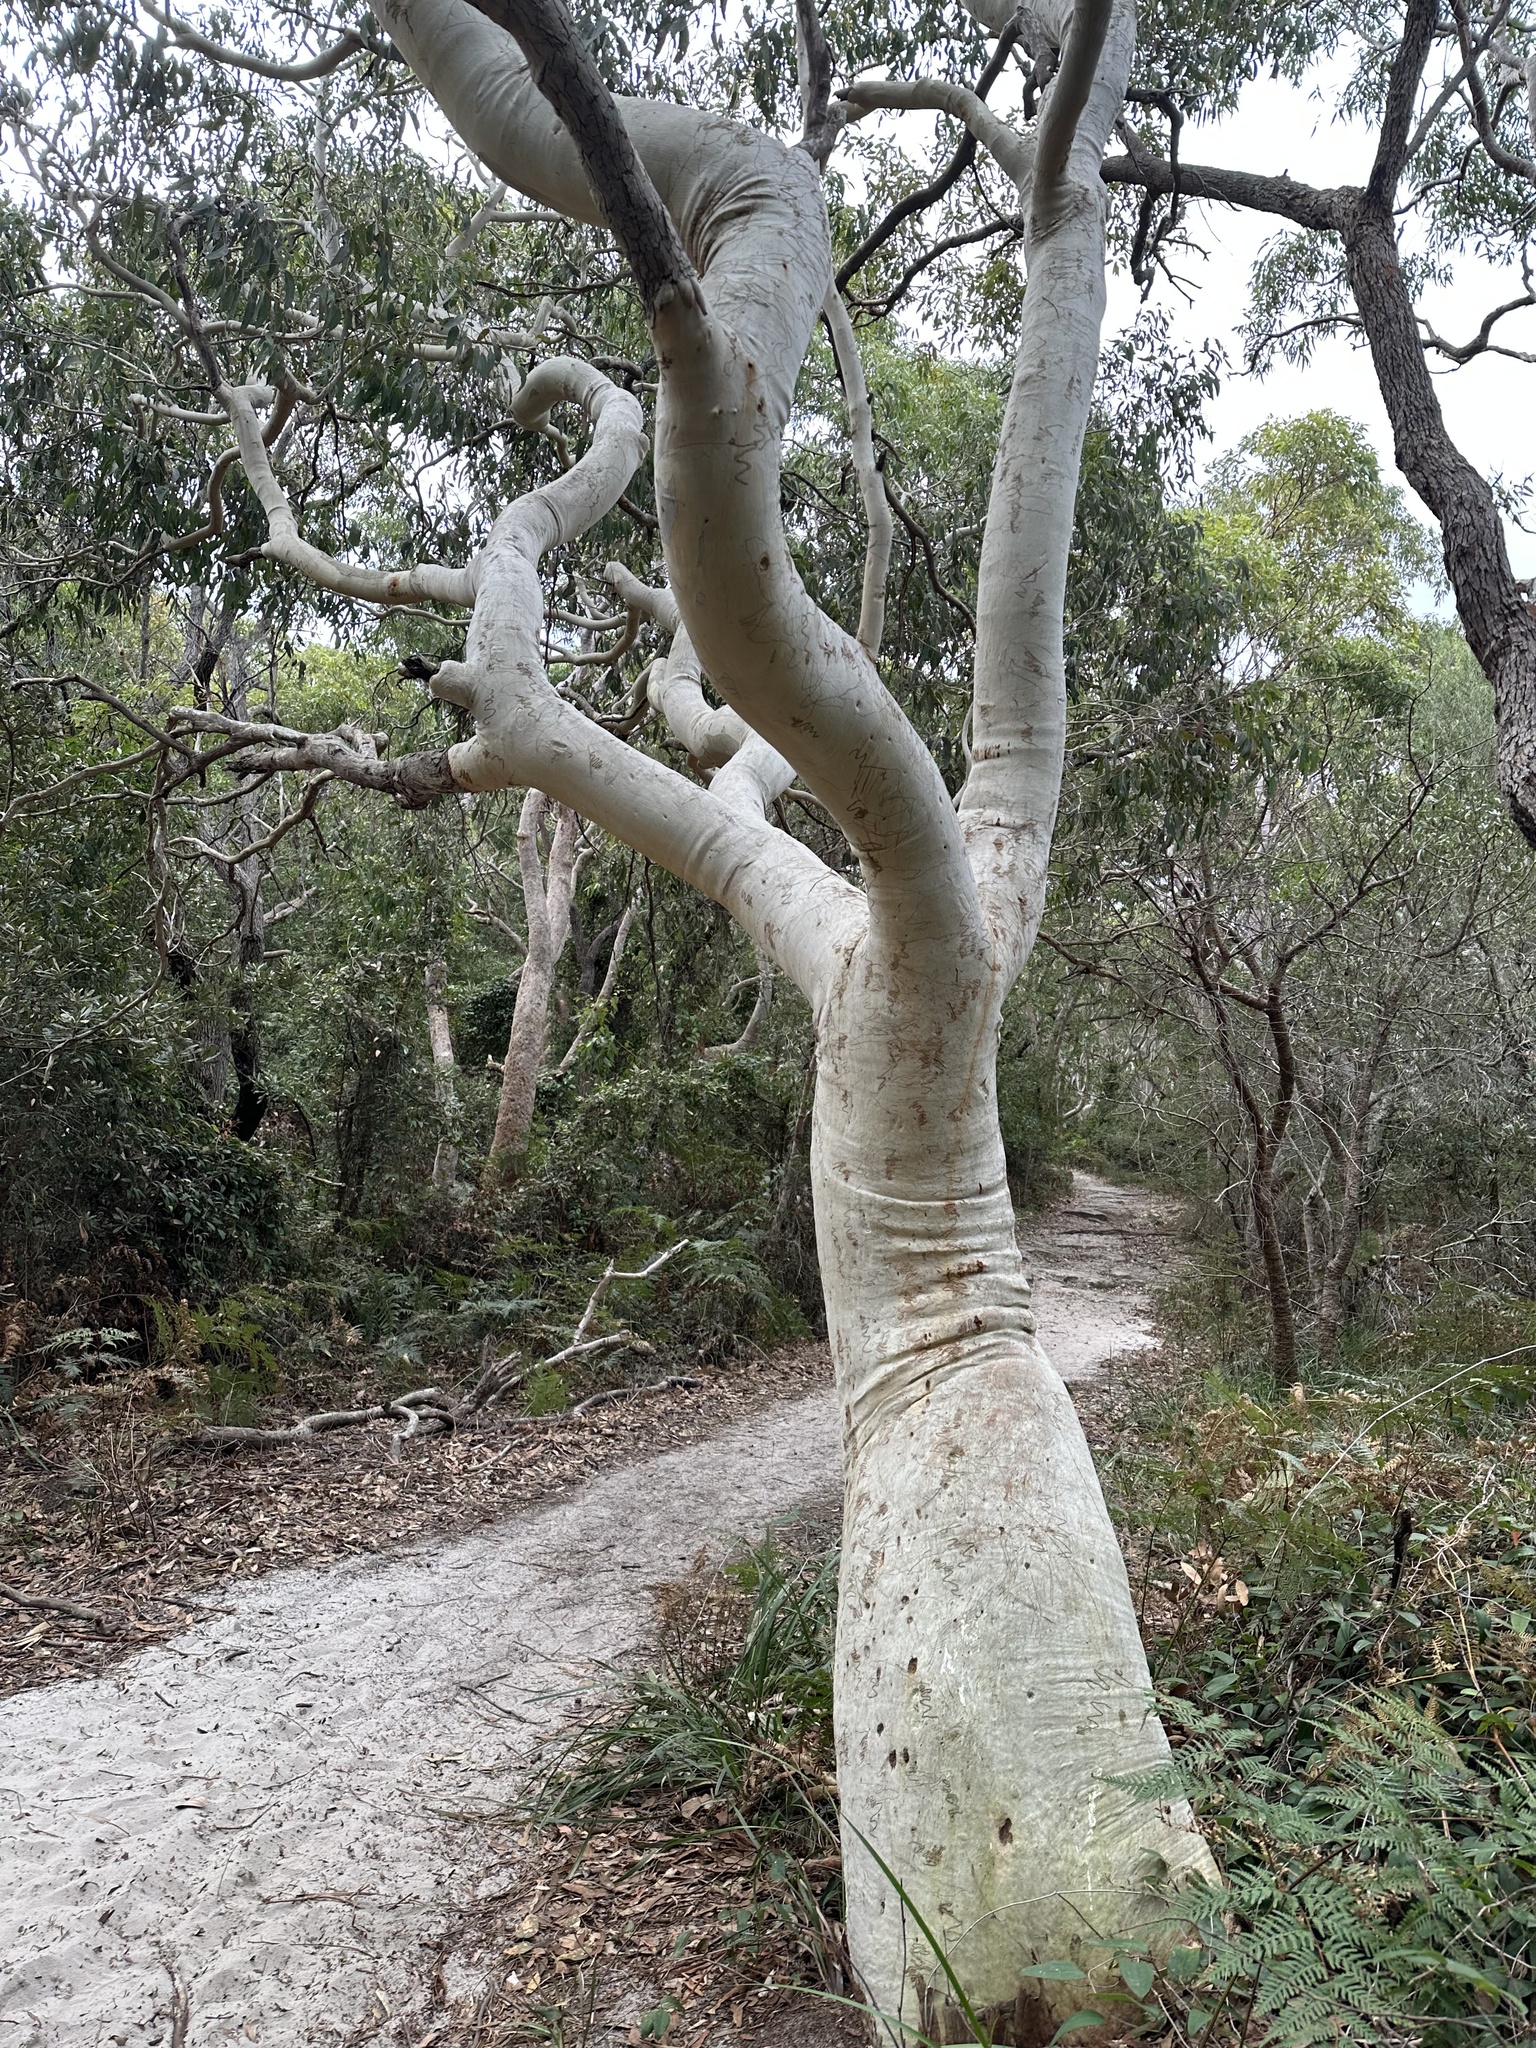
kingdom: Plantae
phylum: Tracheophyta
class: Magnoliopsida
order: Myrtales
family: Myrtaceae
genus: Eucalyptus
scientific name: Eucalyptus haemastoma
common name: Scribbly-gum
